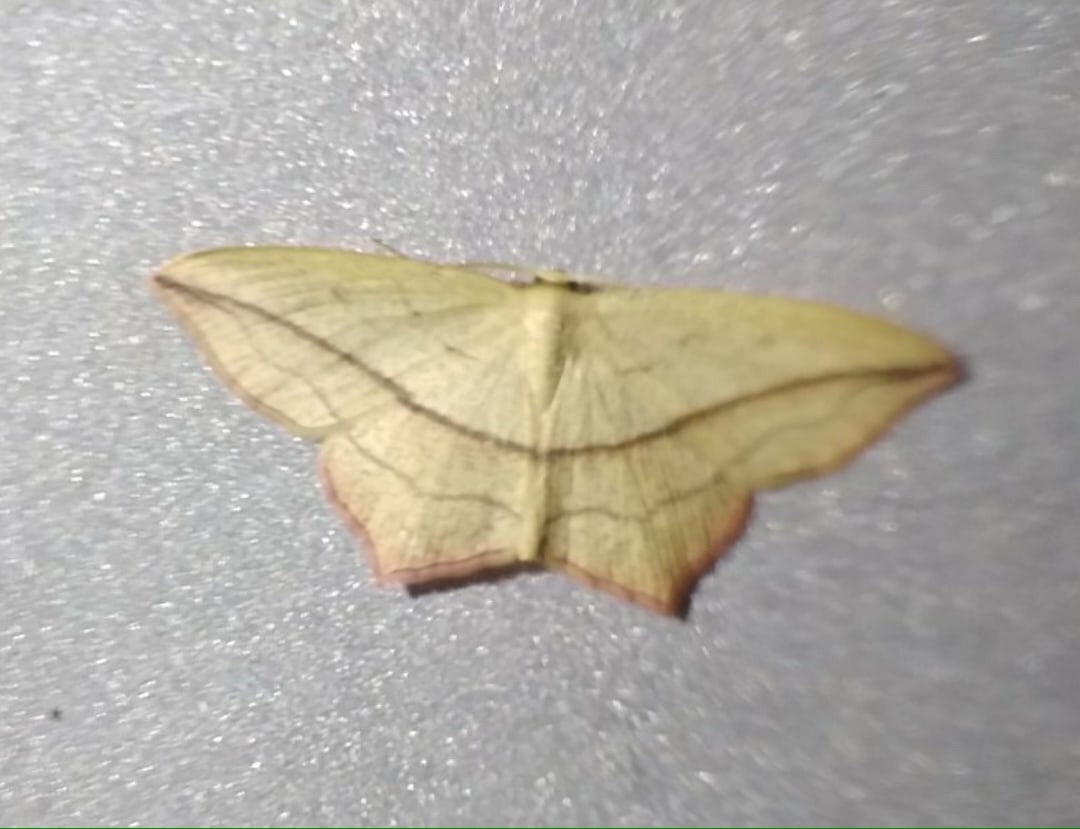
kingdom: Animalia
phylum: Arthropoda
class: Insecta
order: Lepidoptera
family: Geometridae
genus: Timandra
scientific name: Timandra comae
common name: Blood-vein
